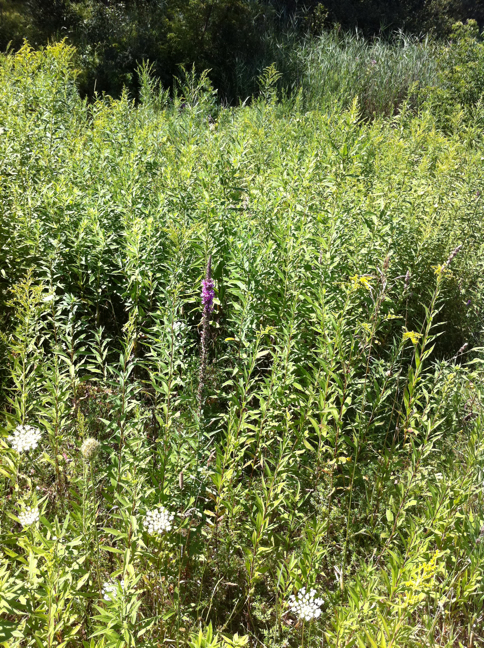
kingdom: Plantae
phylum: Tracheophyta
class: Magnoliopsida
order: Apiales
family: Apiaceae
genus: Daucus
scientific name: Daucus carota
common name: Wild carrot
